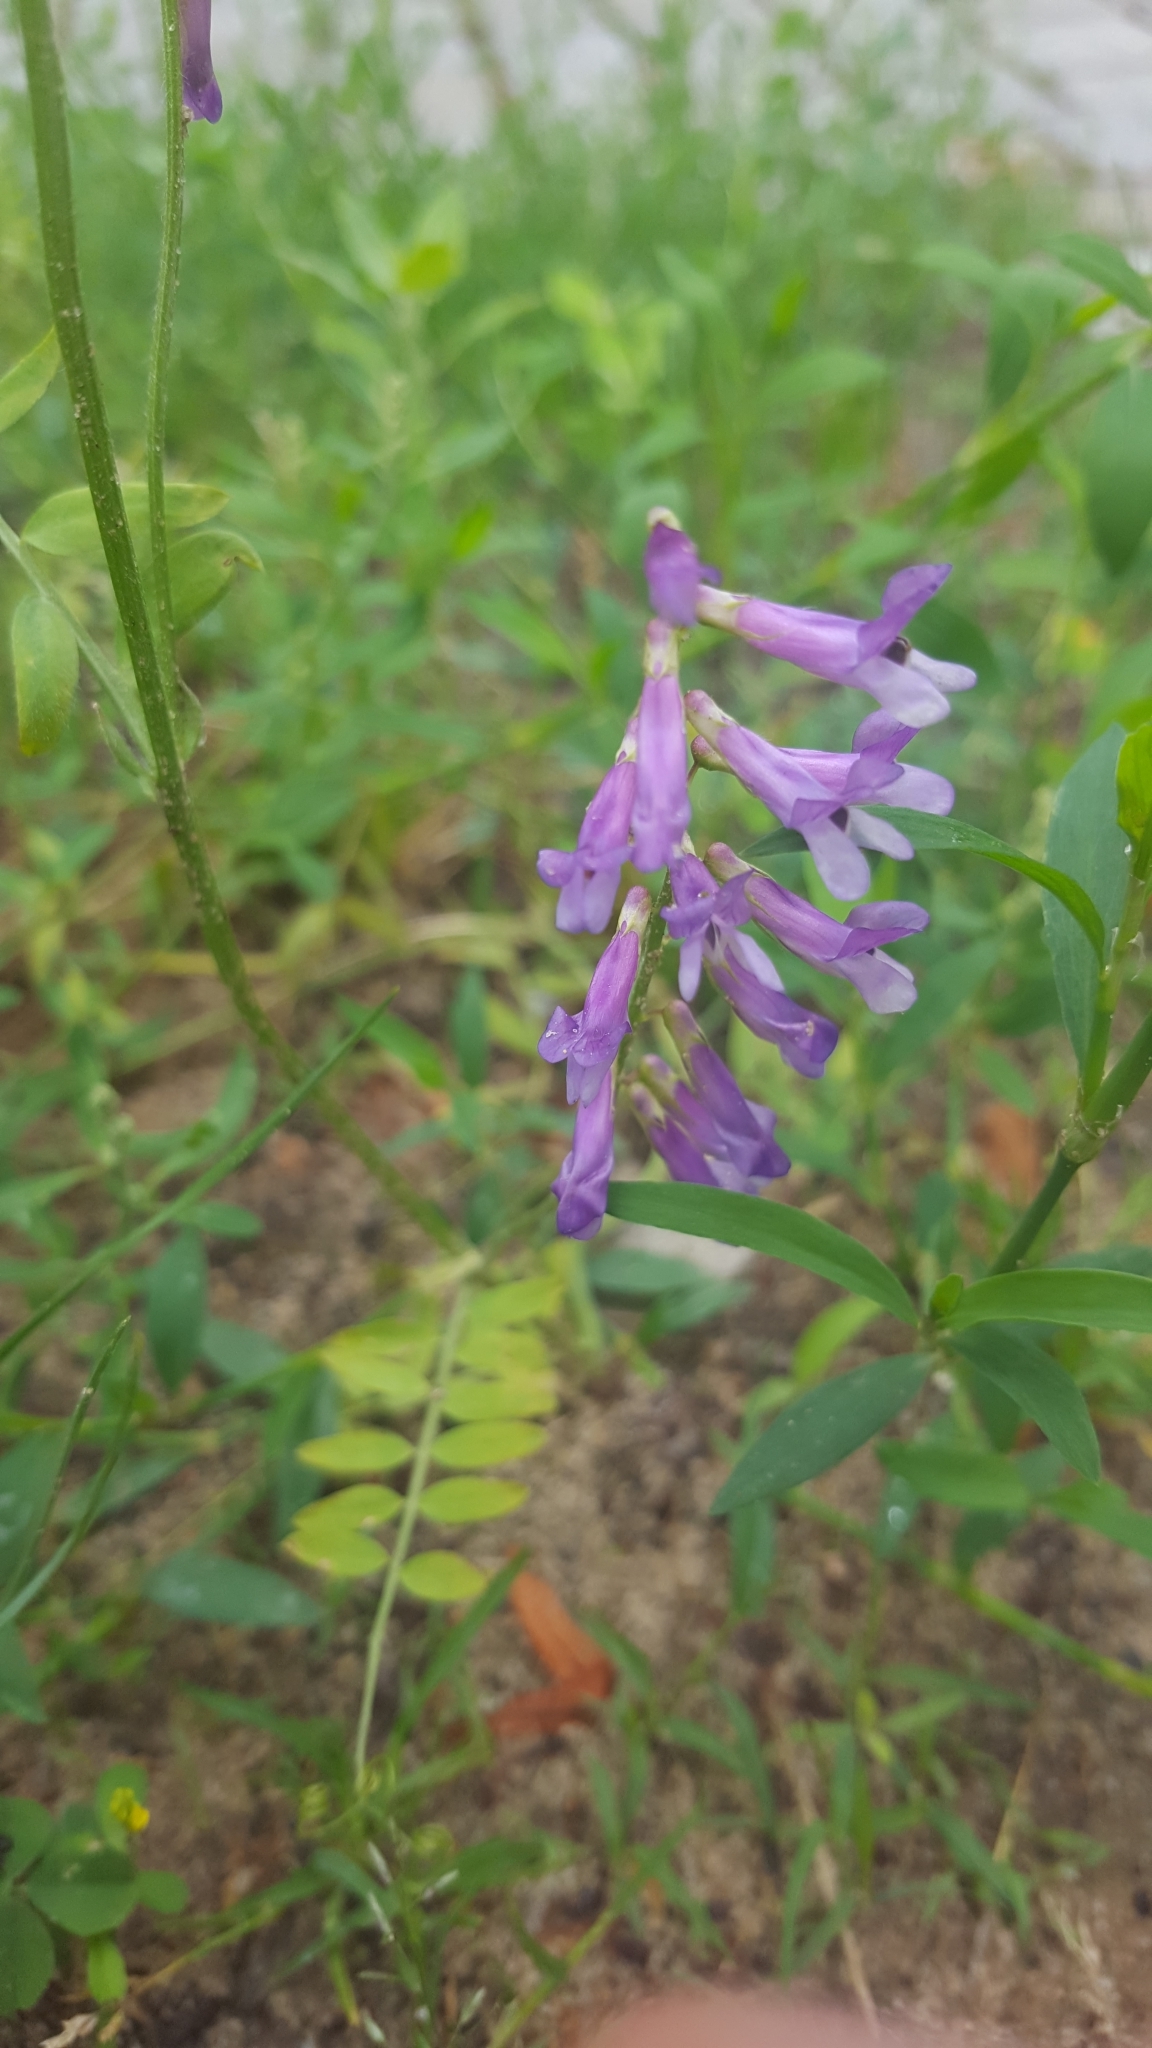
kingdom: Plantae
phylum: Tracheophyta
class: Magnoliopsida
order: Fabales
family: Fabaceae
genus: Vicia
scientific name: Vicia villosa
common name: Fodder vetch
